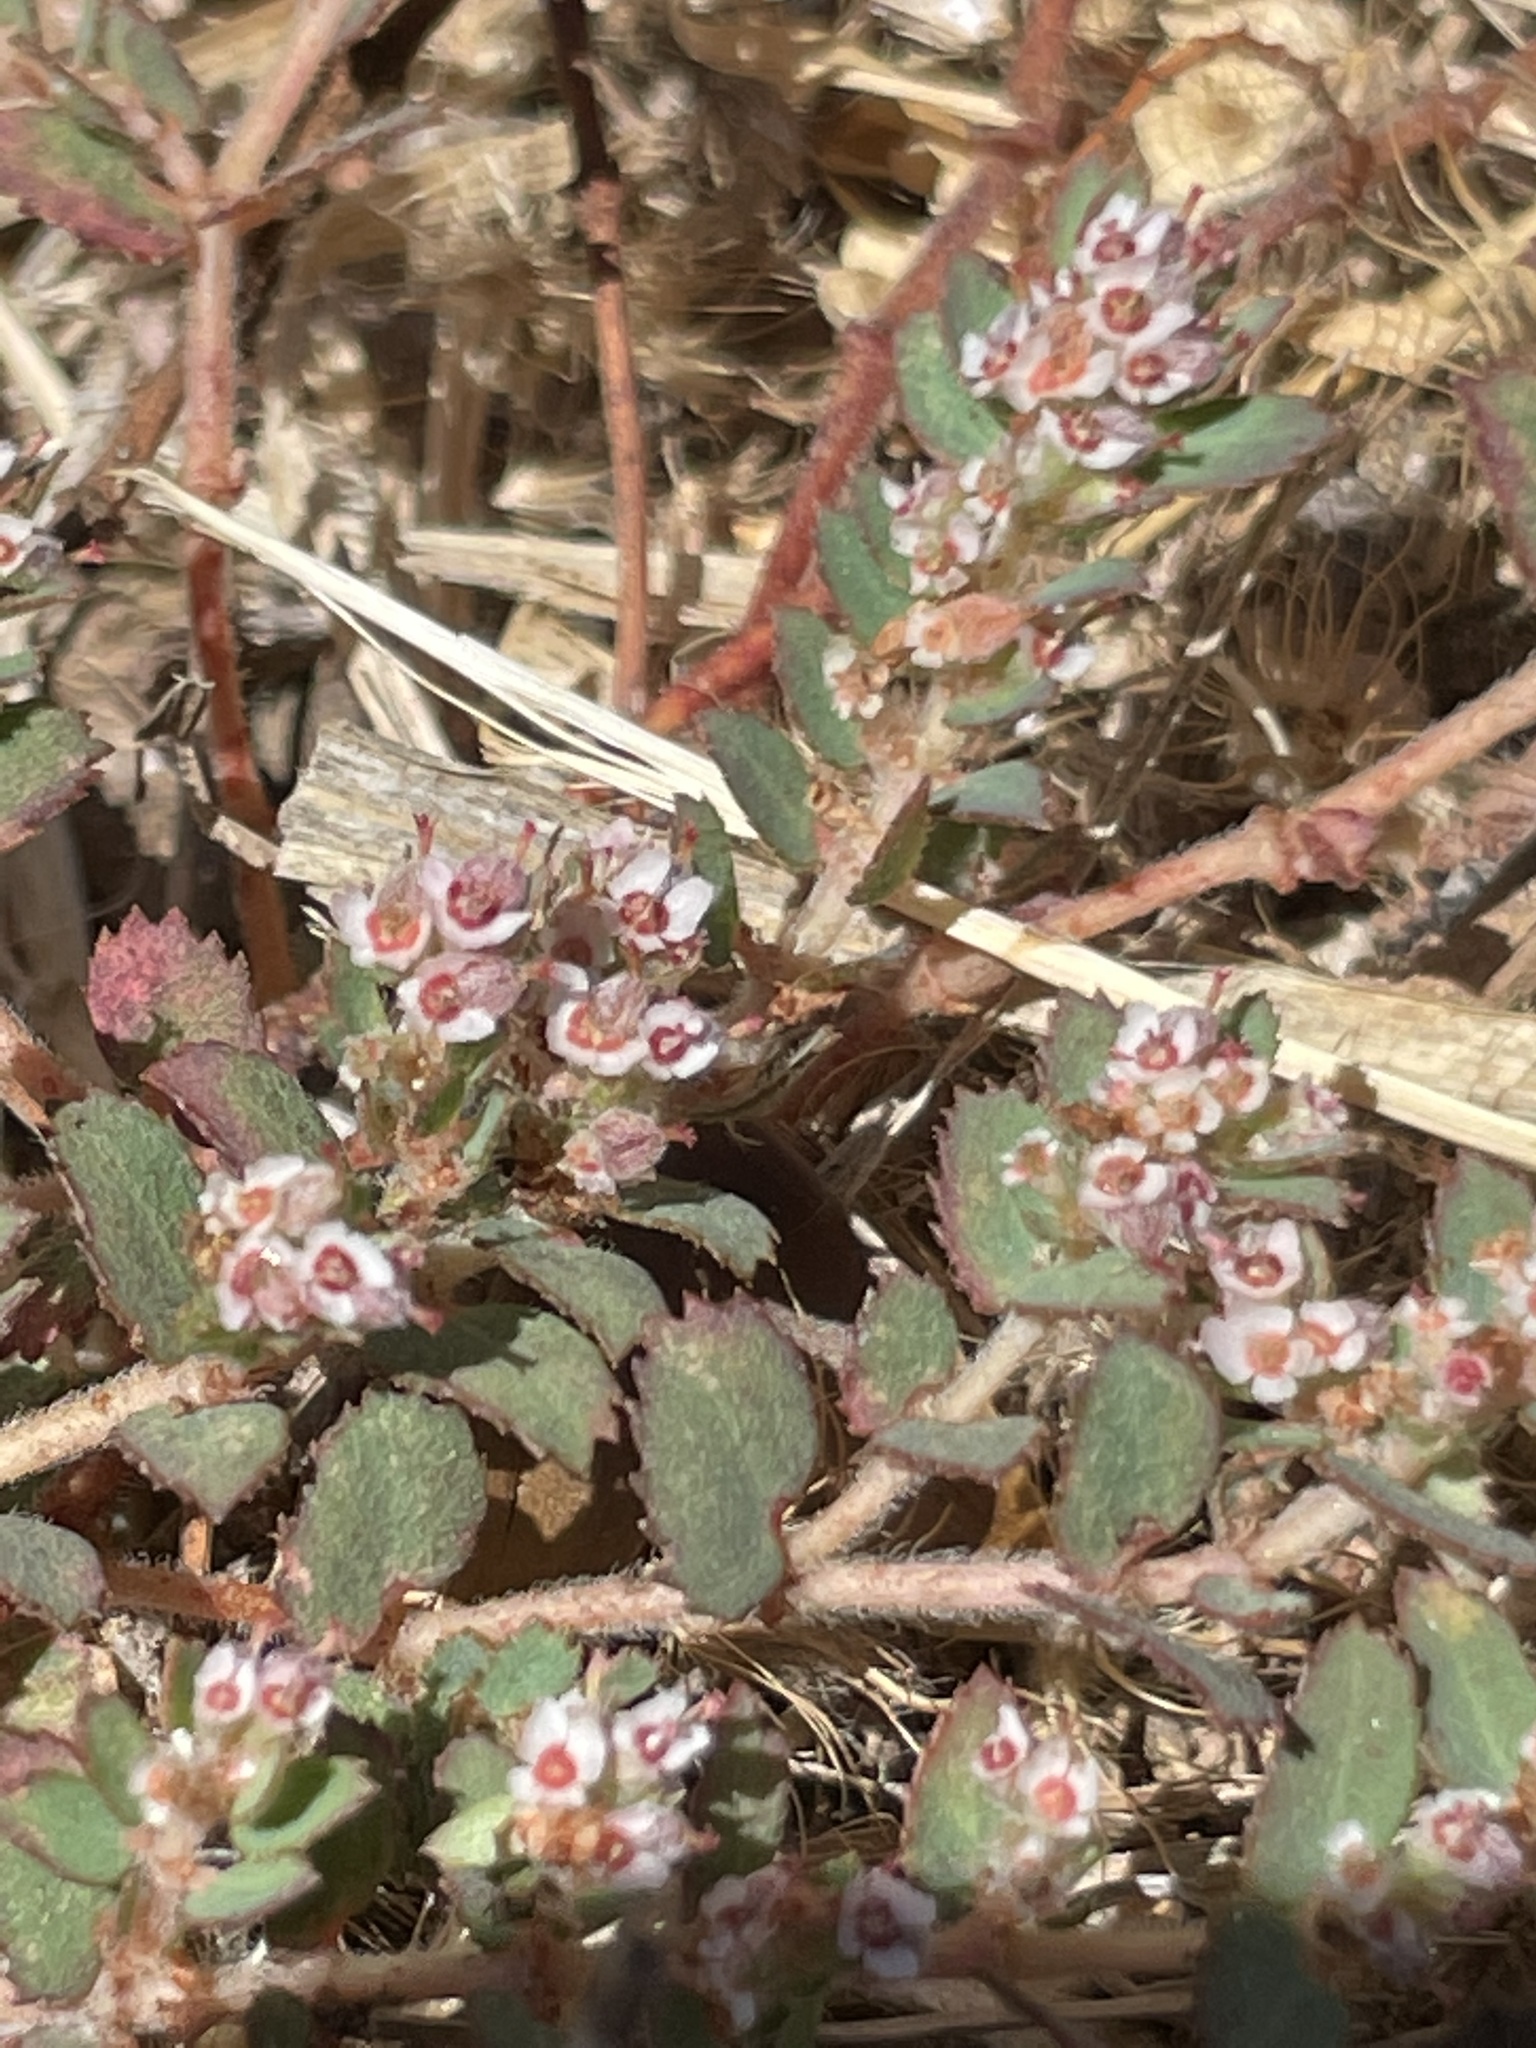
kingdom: Plantae
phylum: Tracheophyta
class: Magnoliopsida
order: Malpighiales
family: Euphorbiaceae
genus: Euphorbia
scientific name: Euphorbia dioeca
